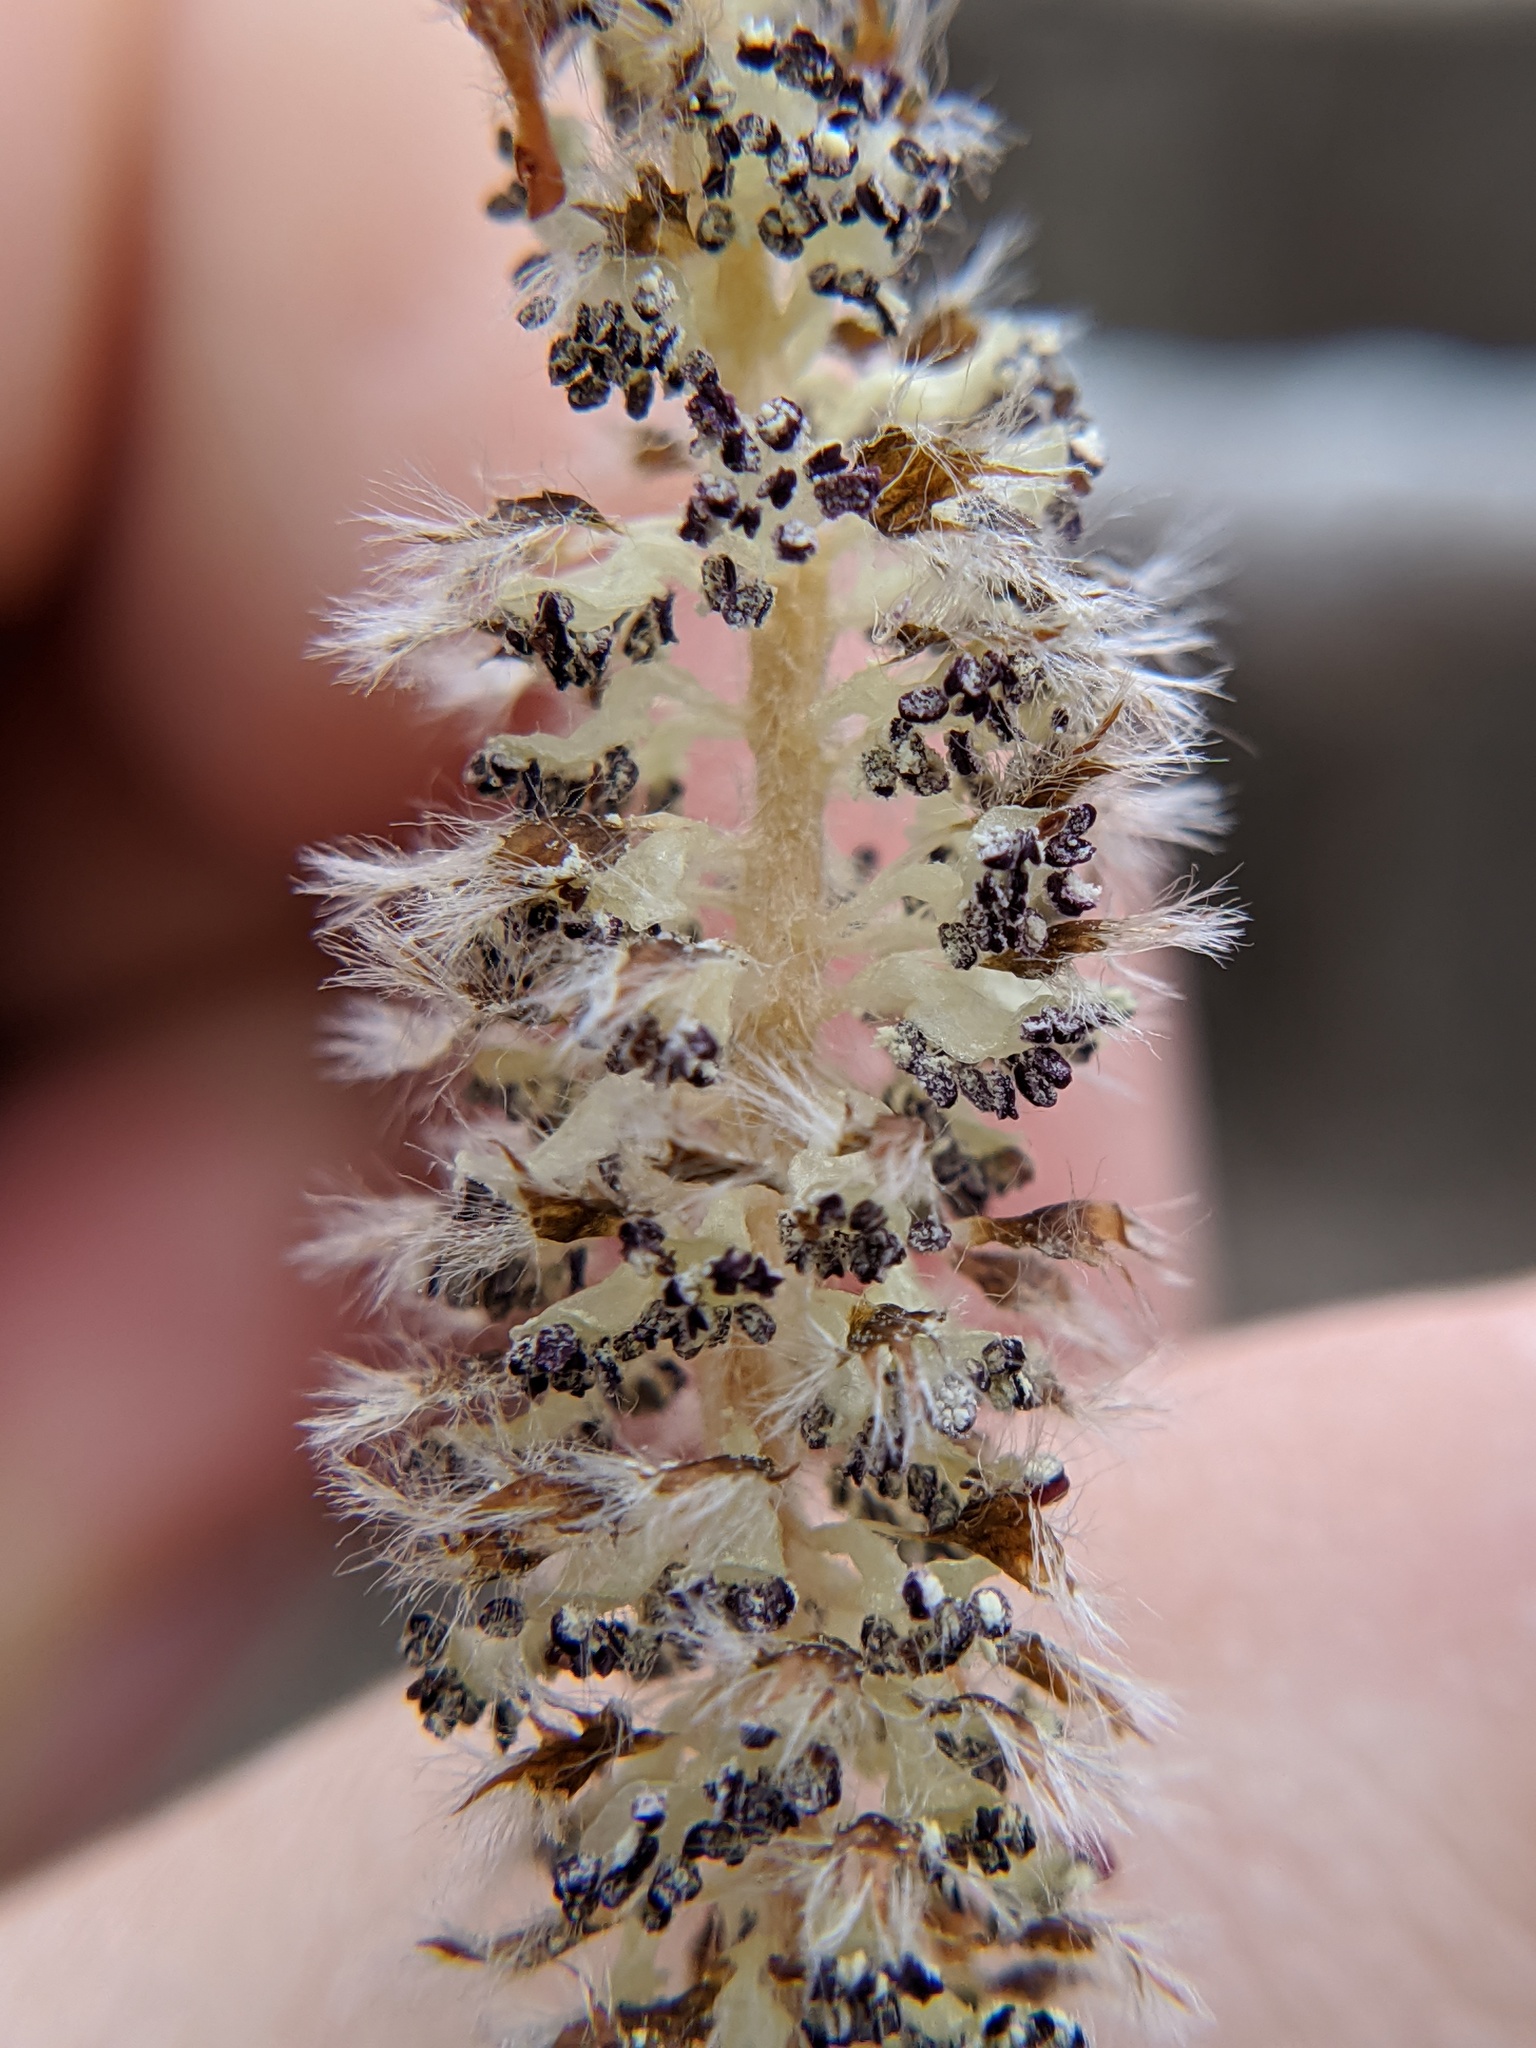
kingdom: Plantae
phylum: Tracheophyta
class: Magnoliopsida
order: Malpighiales
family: Salicaceae
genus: Populus
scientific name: Populus alba
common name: White poplar
